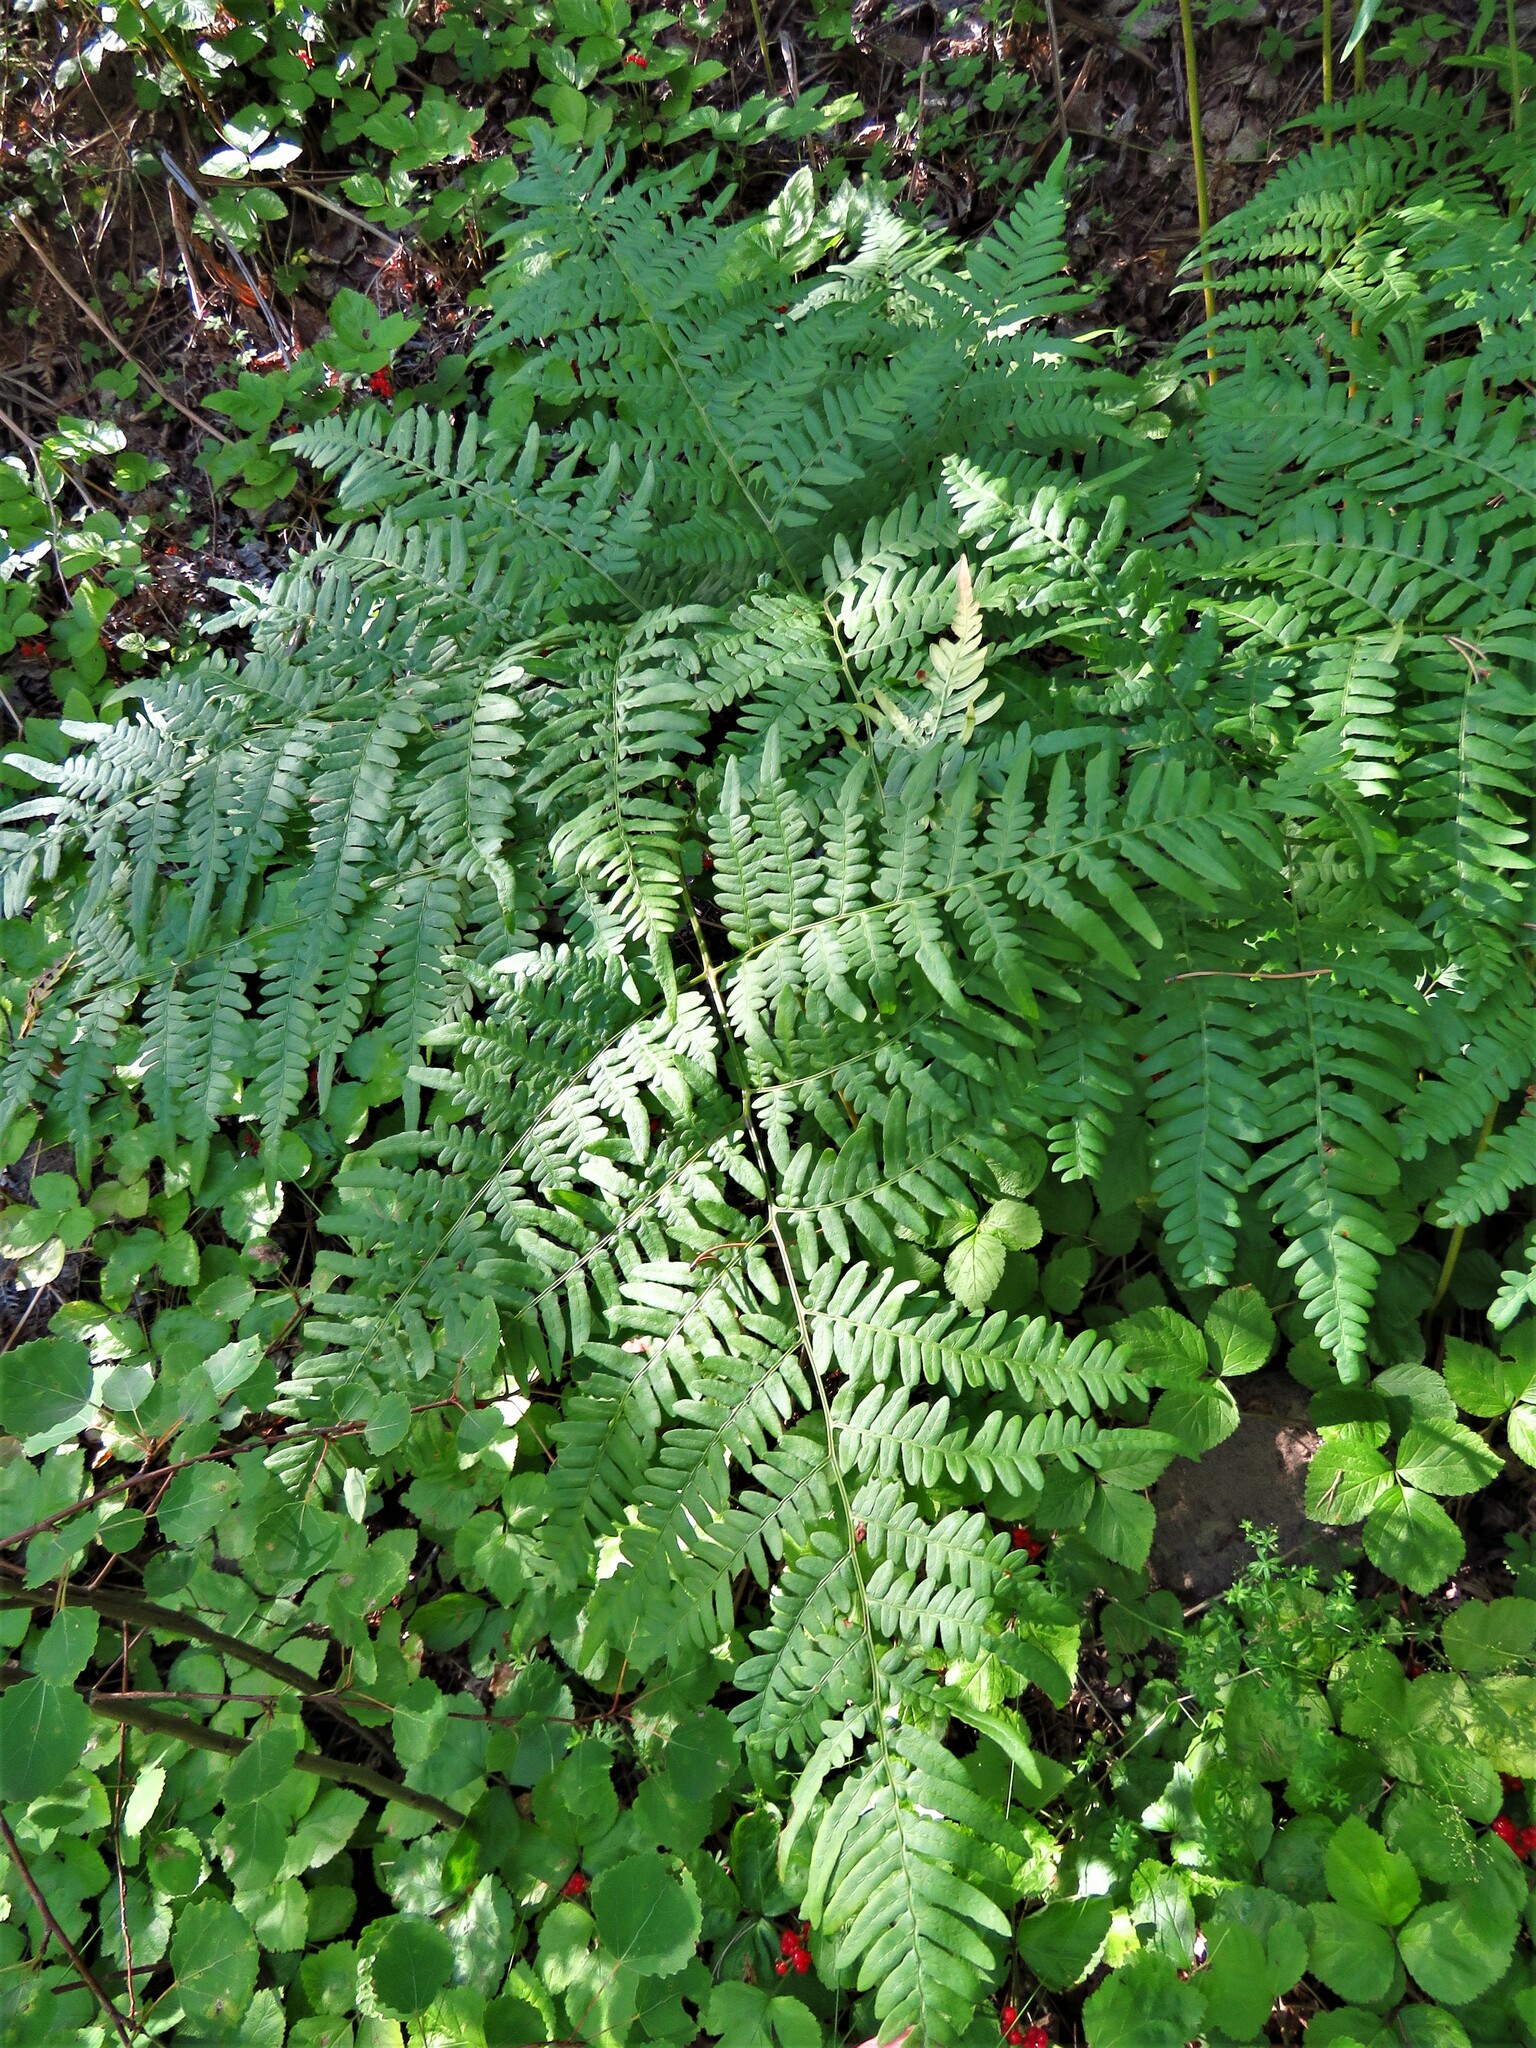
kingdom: Plantae
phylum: Tracheophyta
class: Polypodiopsida
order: Polypodiales
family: Dennstaedtiaceae
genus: Pteridium
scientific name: Pteridium aquilinum
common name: Bracken
